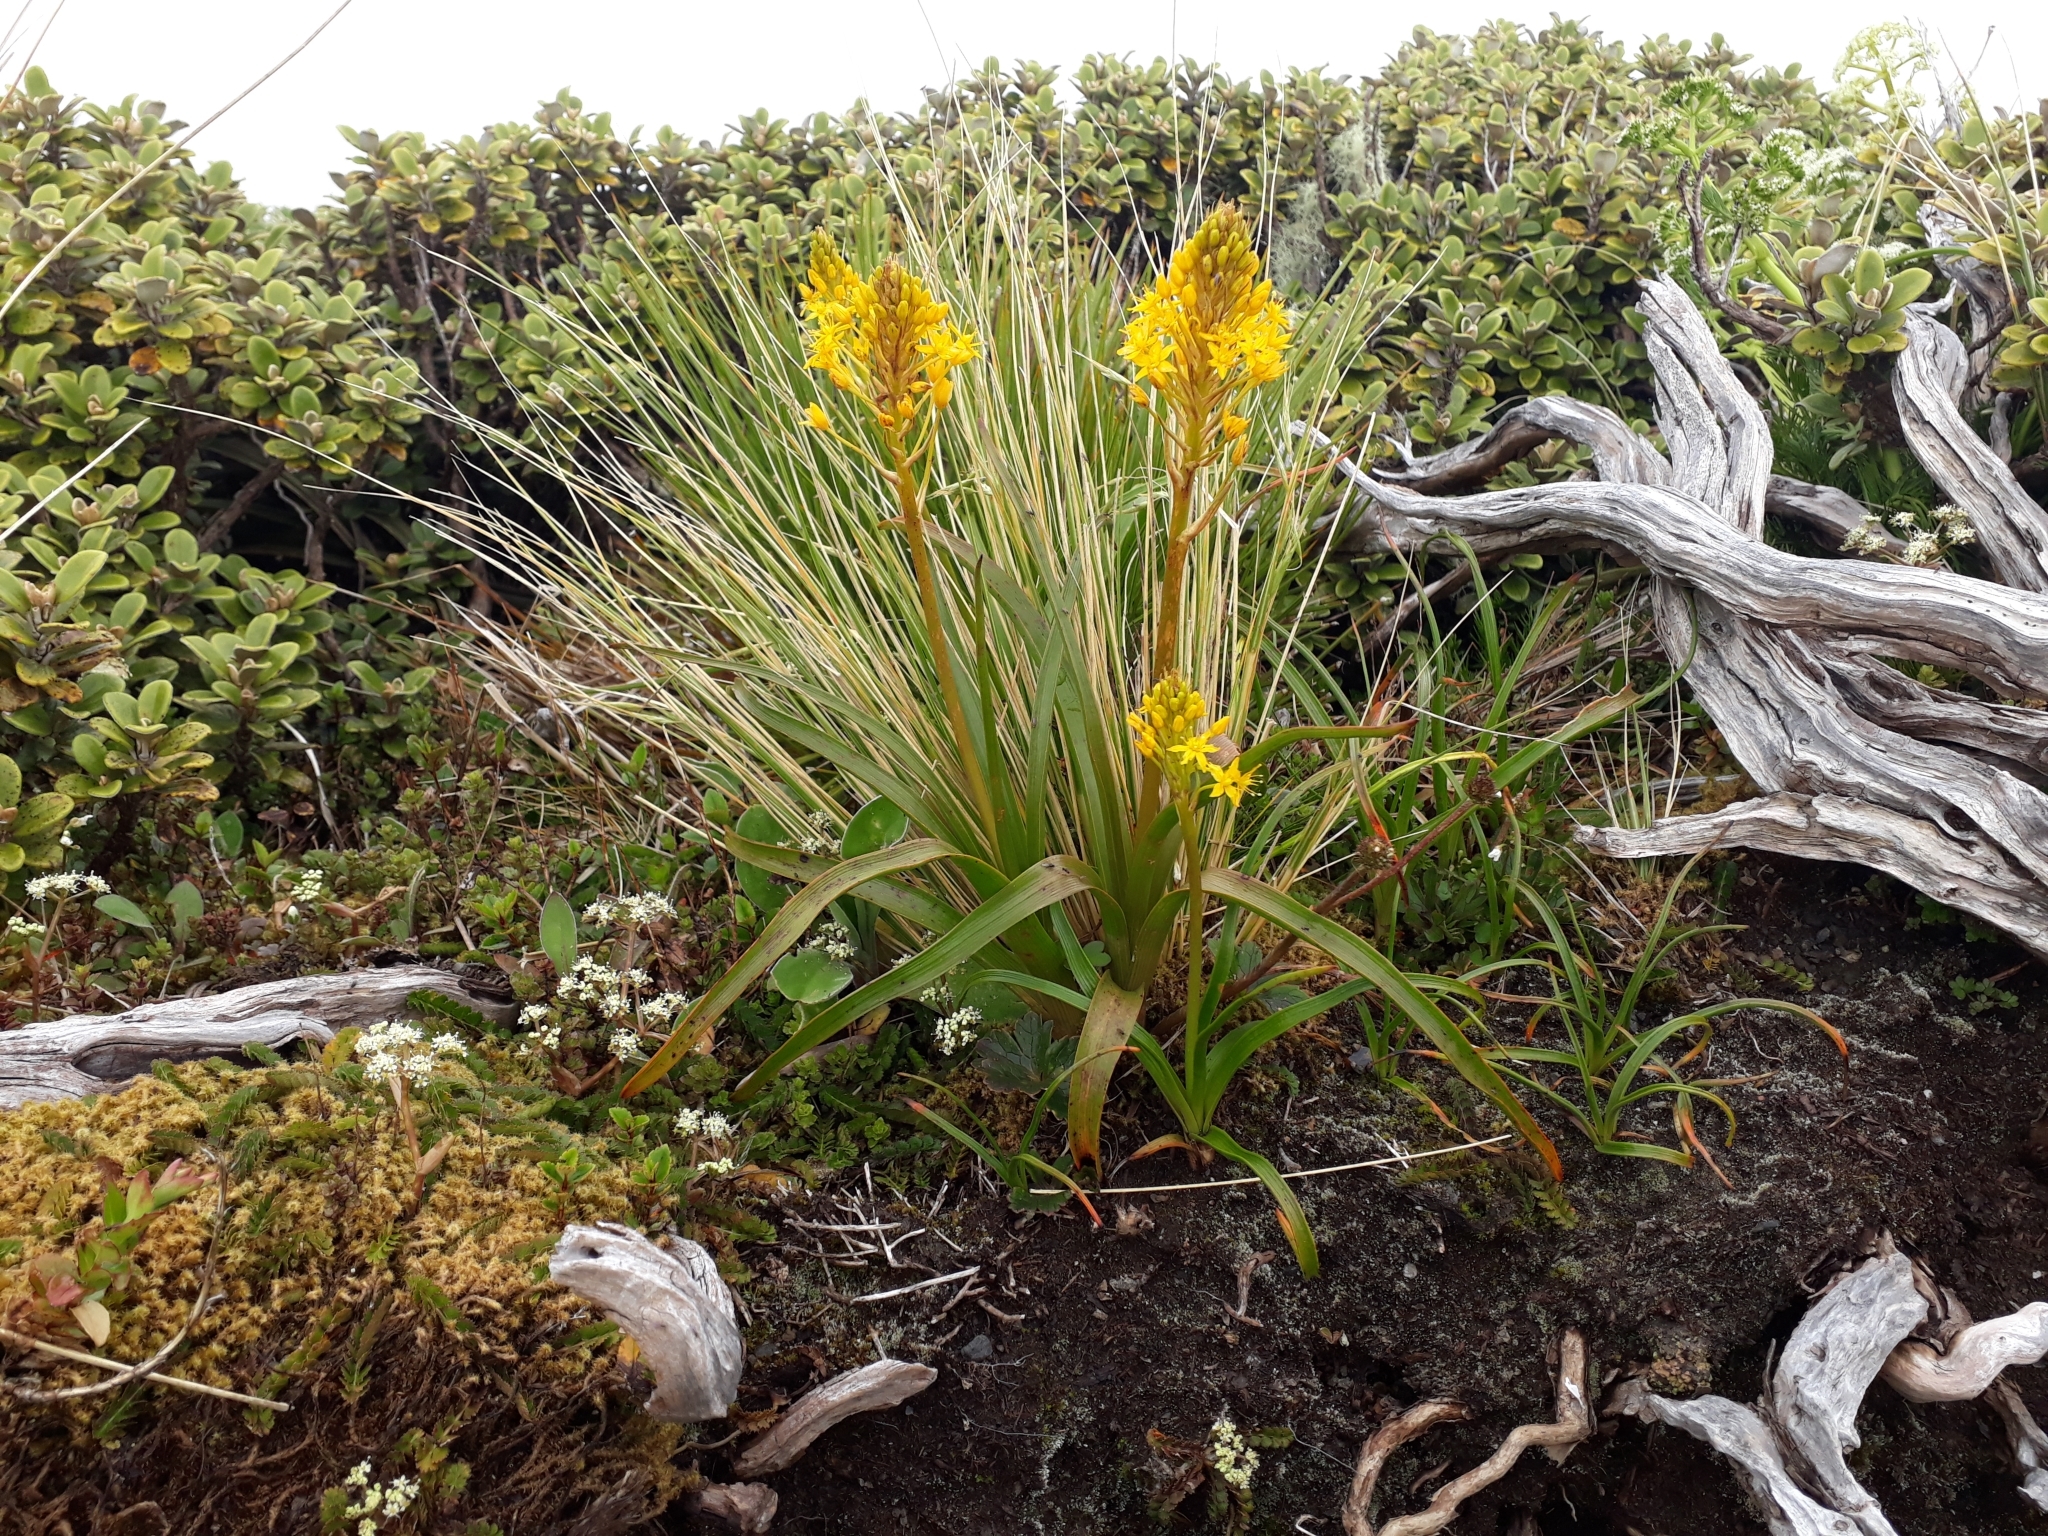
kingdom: Plantae
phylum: Tracheophyta
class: Liliopsida
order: Asparagales
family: Asphodelaceae
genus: Bulbinella
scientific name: Bulbinella gibbsii
